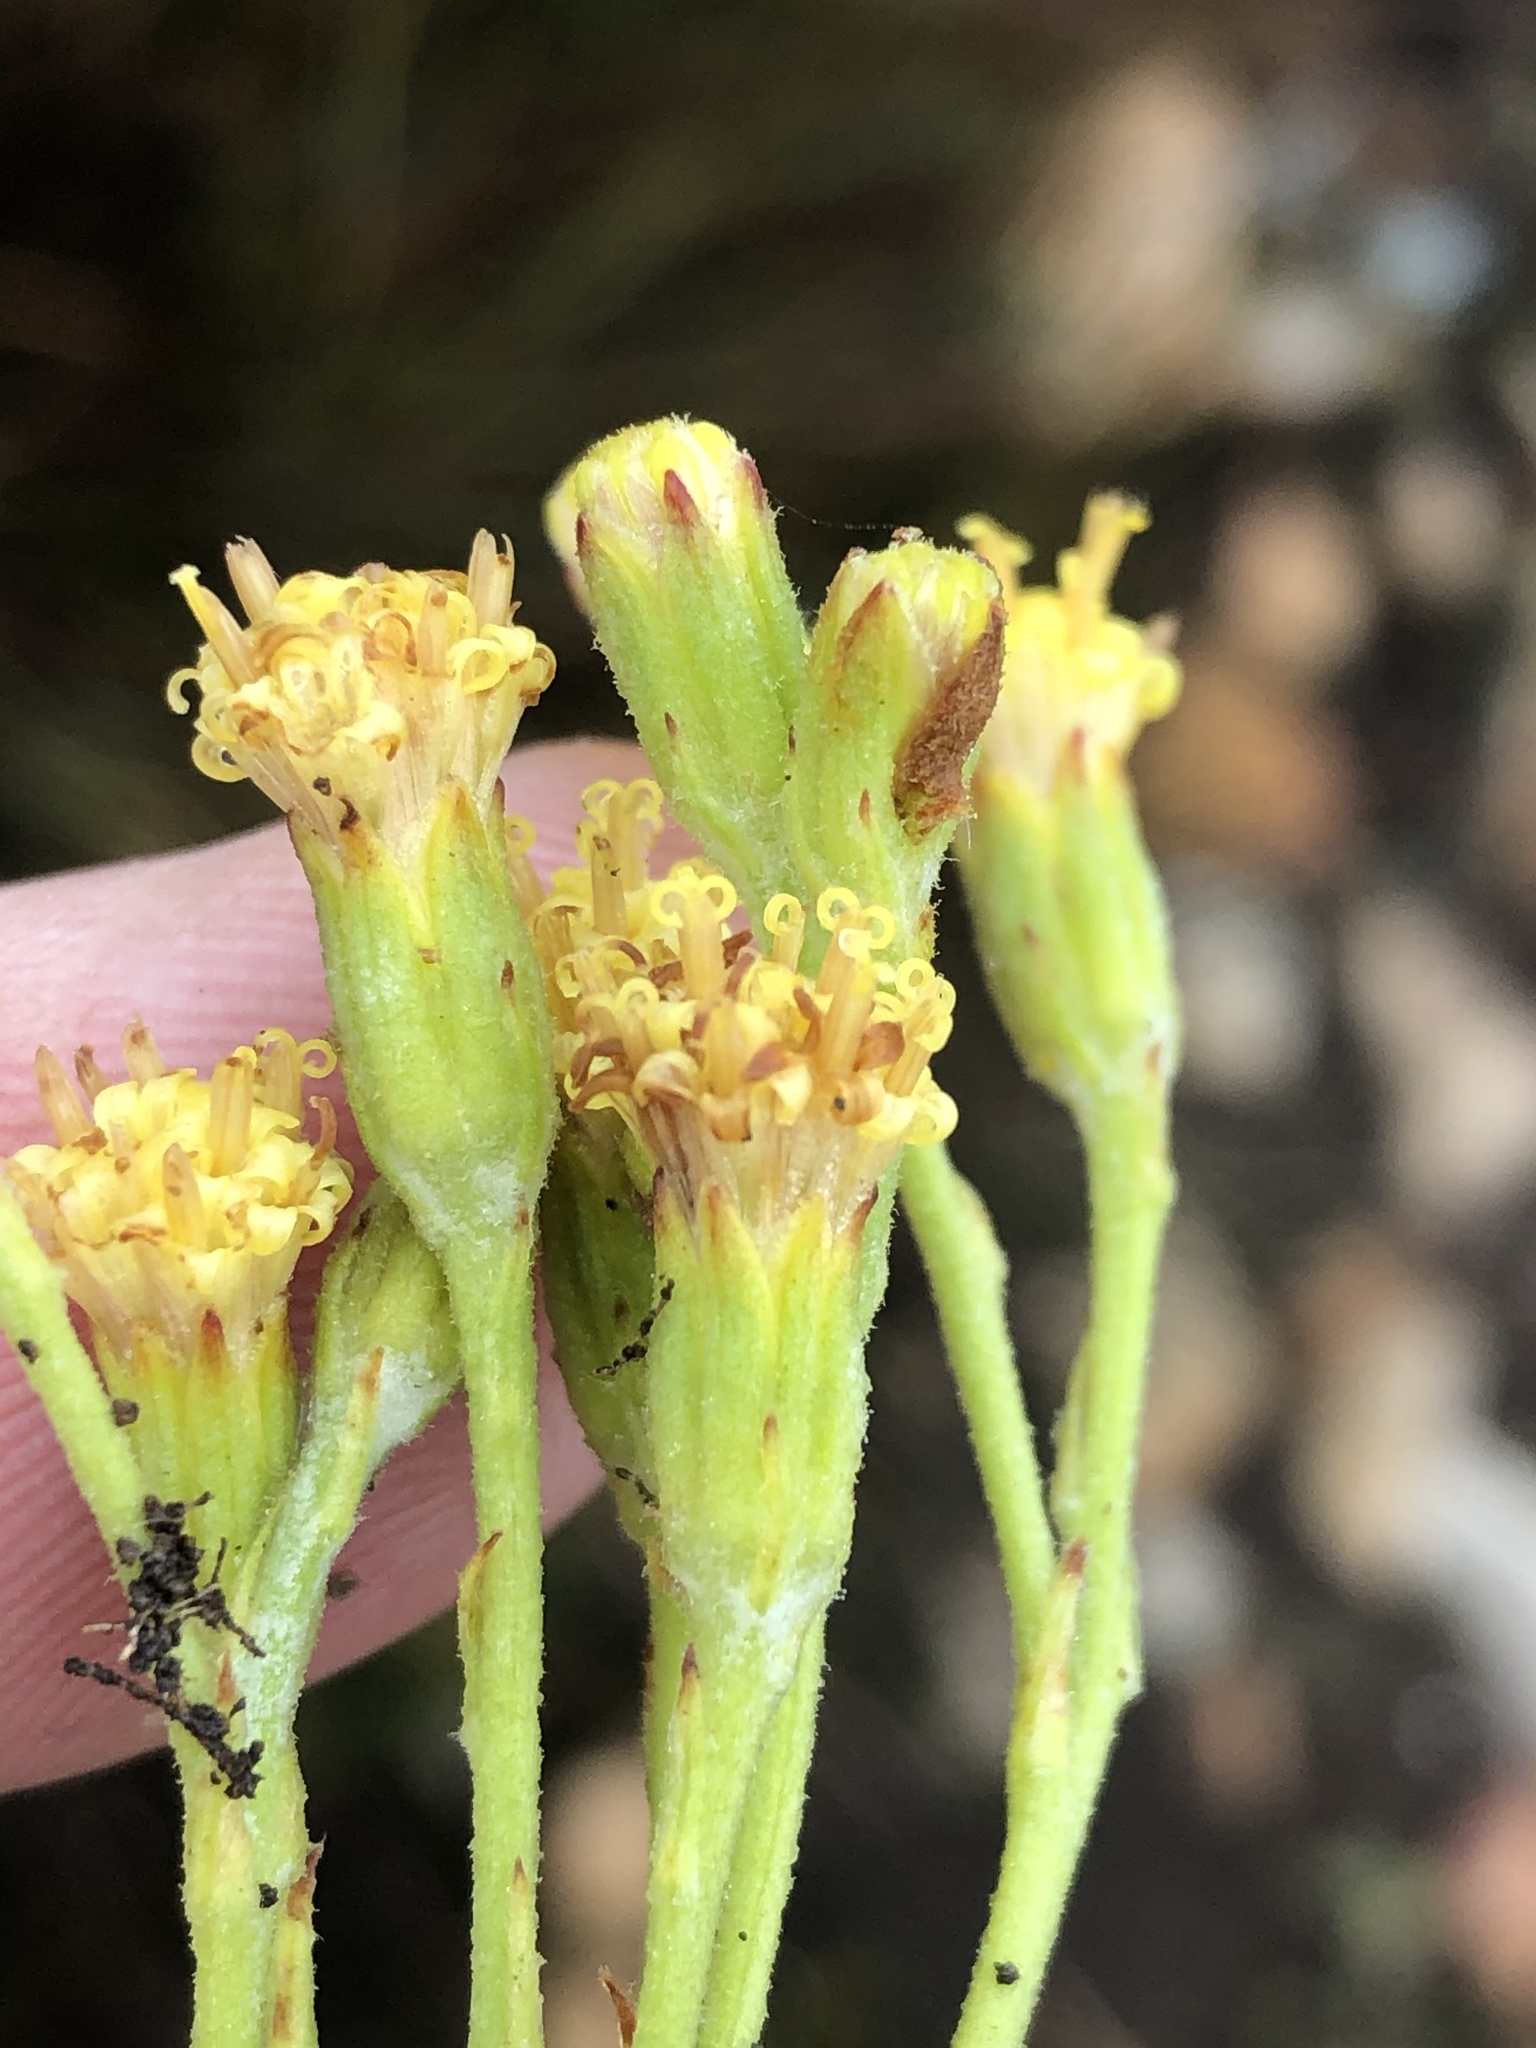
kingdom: Plantae
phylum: Tracheophyta
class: Magnoliopsida
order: Asterales
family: Asteraceae
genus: Senecio
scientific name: Senecio pauciflosculosus
